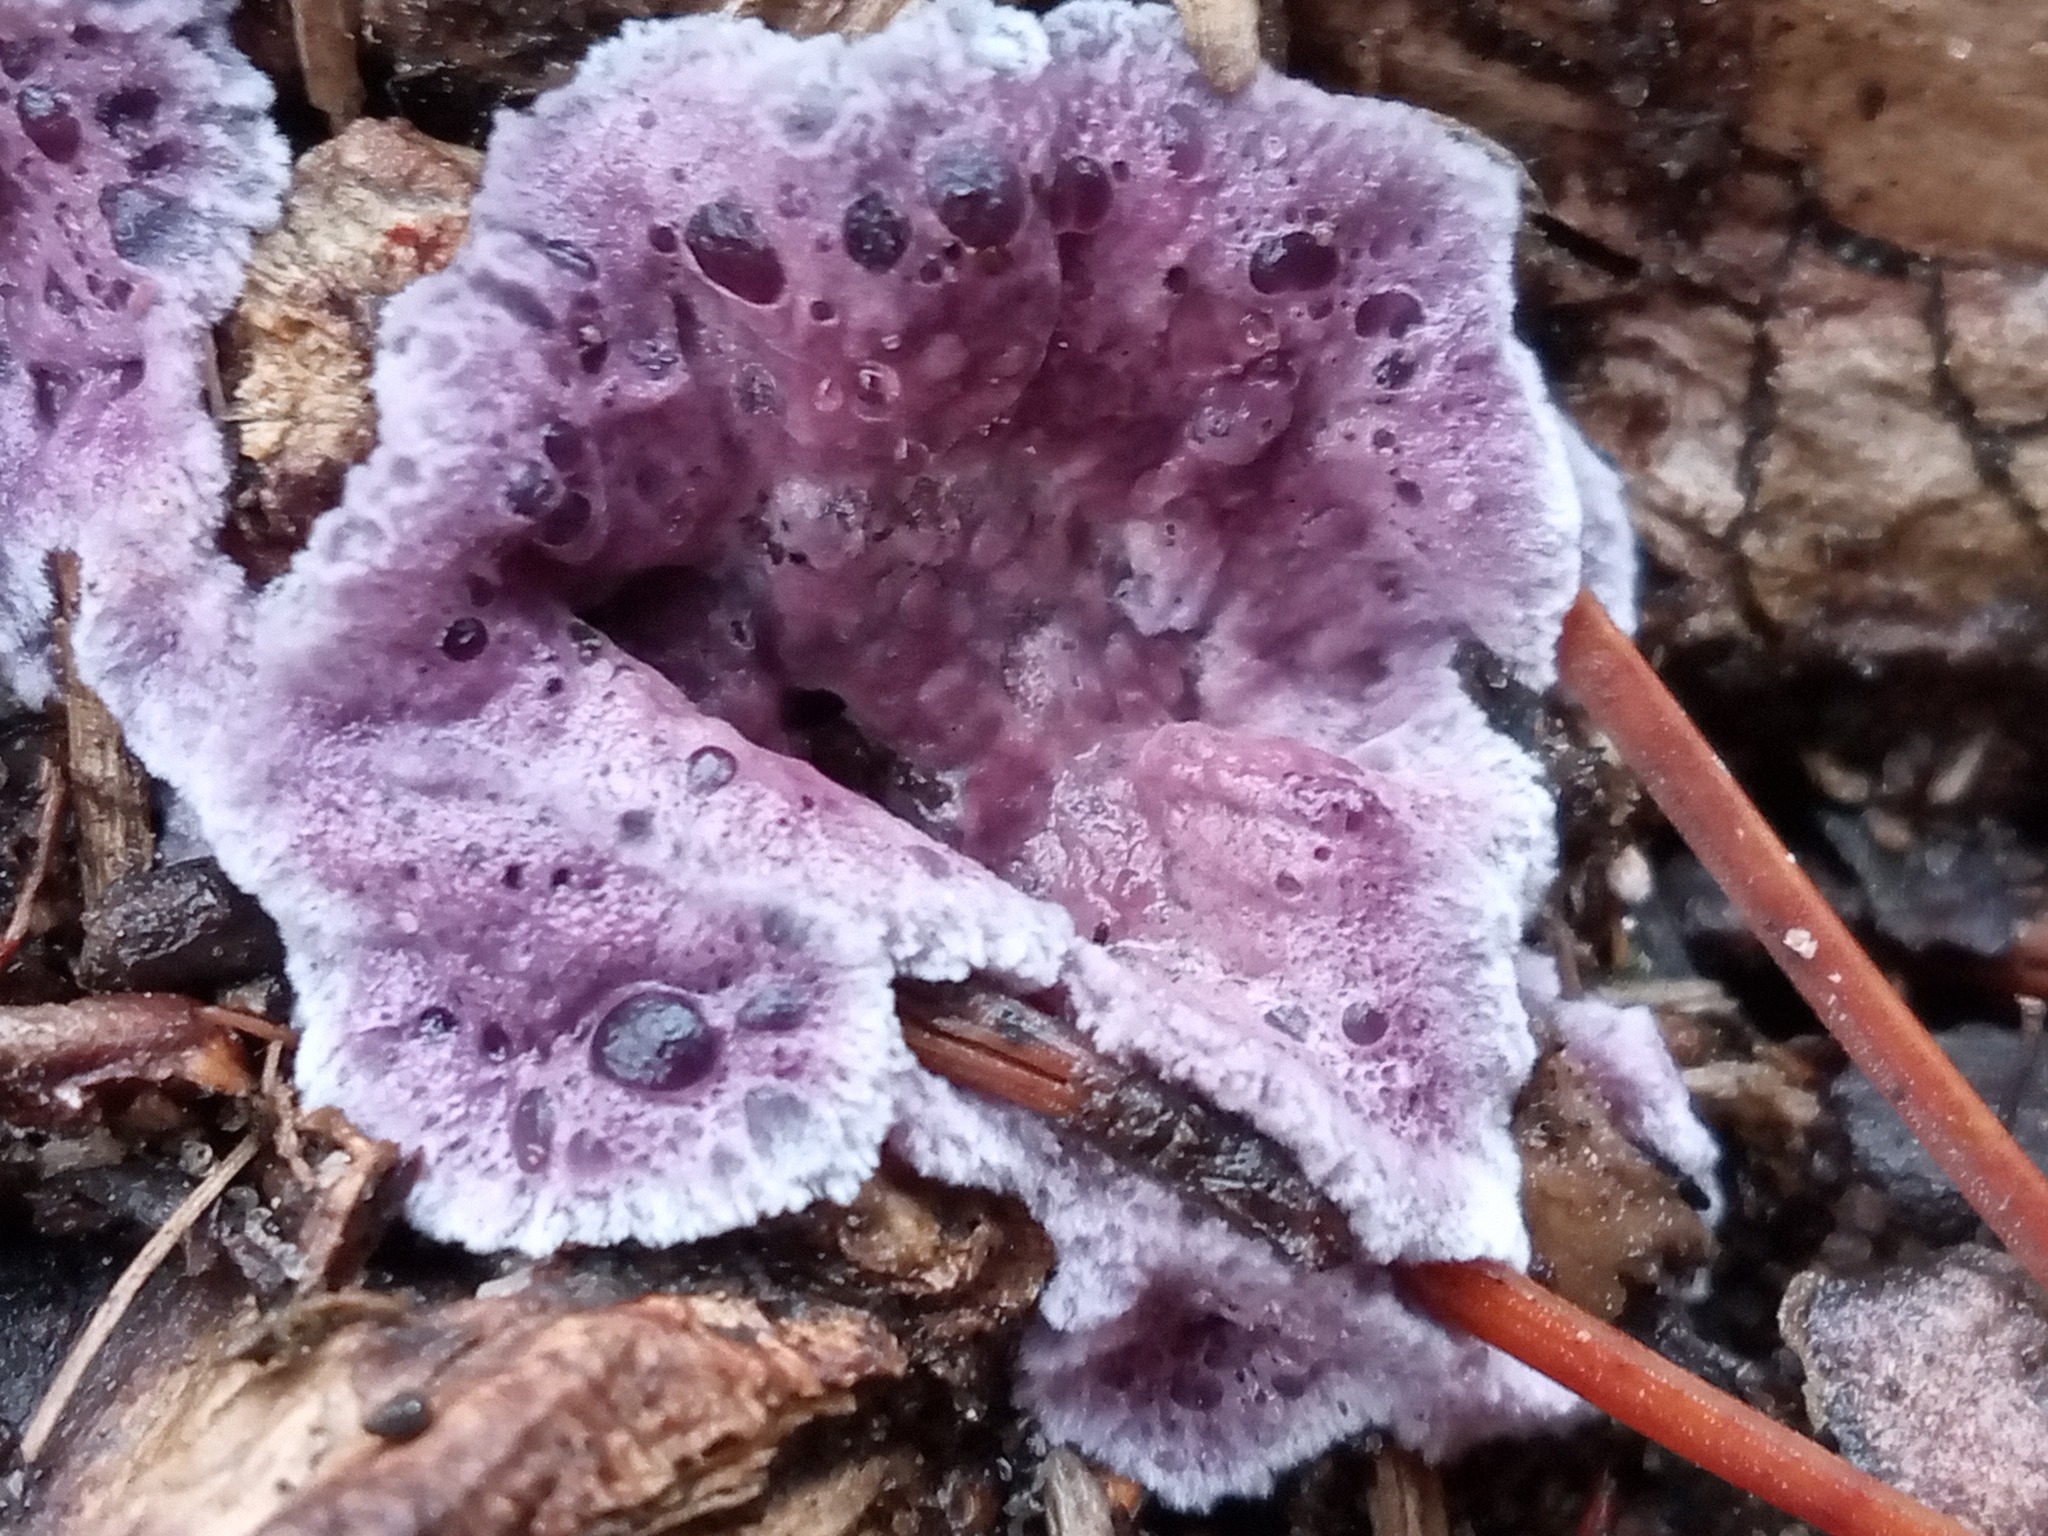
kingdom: Fungi
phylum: Basidiomycota
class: Agaricomycetes
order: Agaricales
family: Cyphellaceae
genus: Chondrostereum
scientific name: Chondrostereum purpureum
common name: Silver leaf disease
